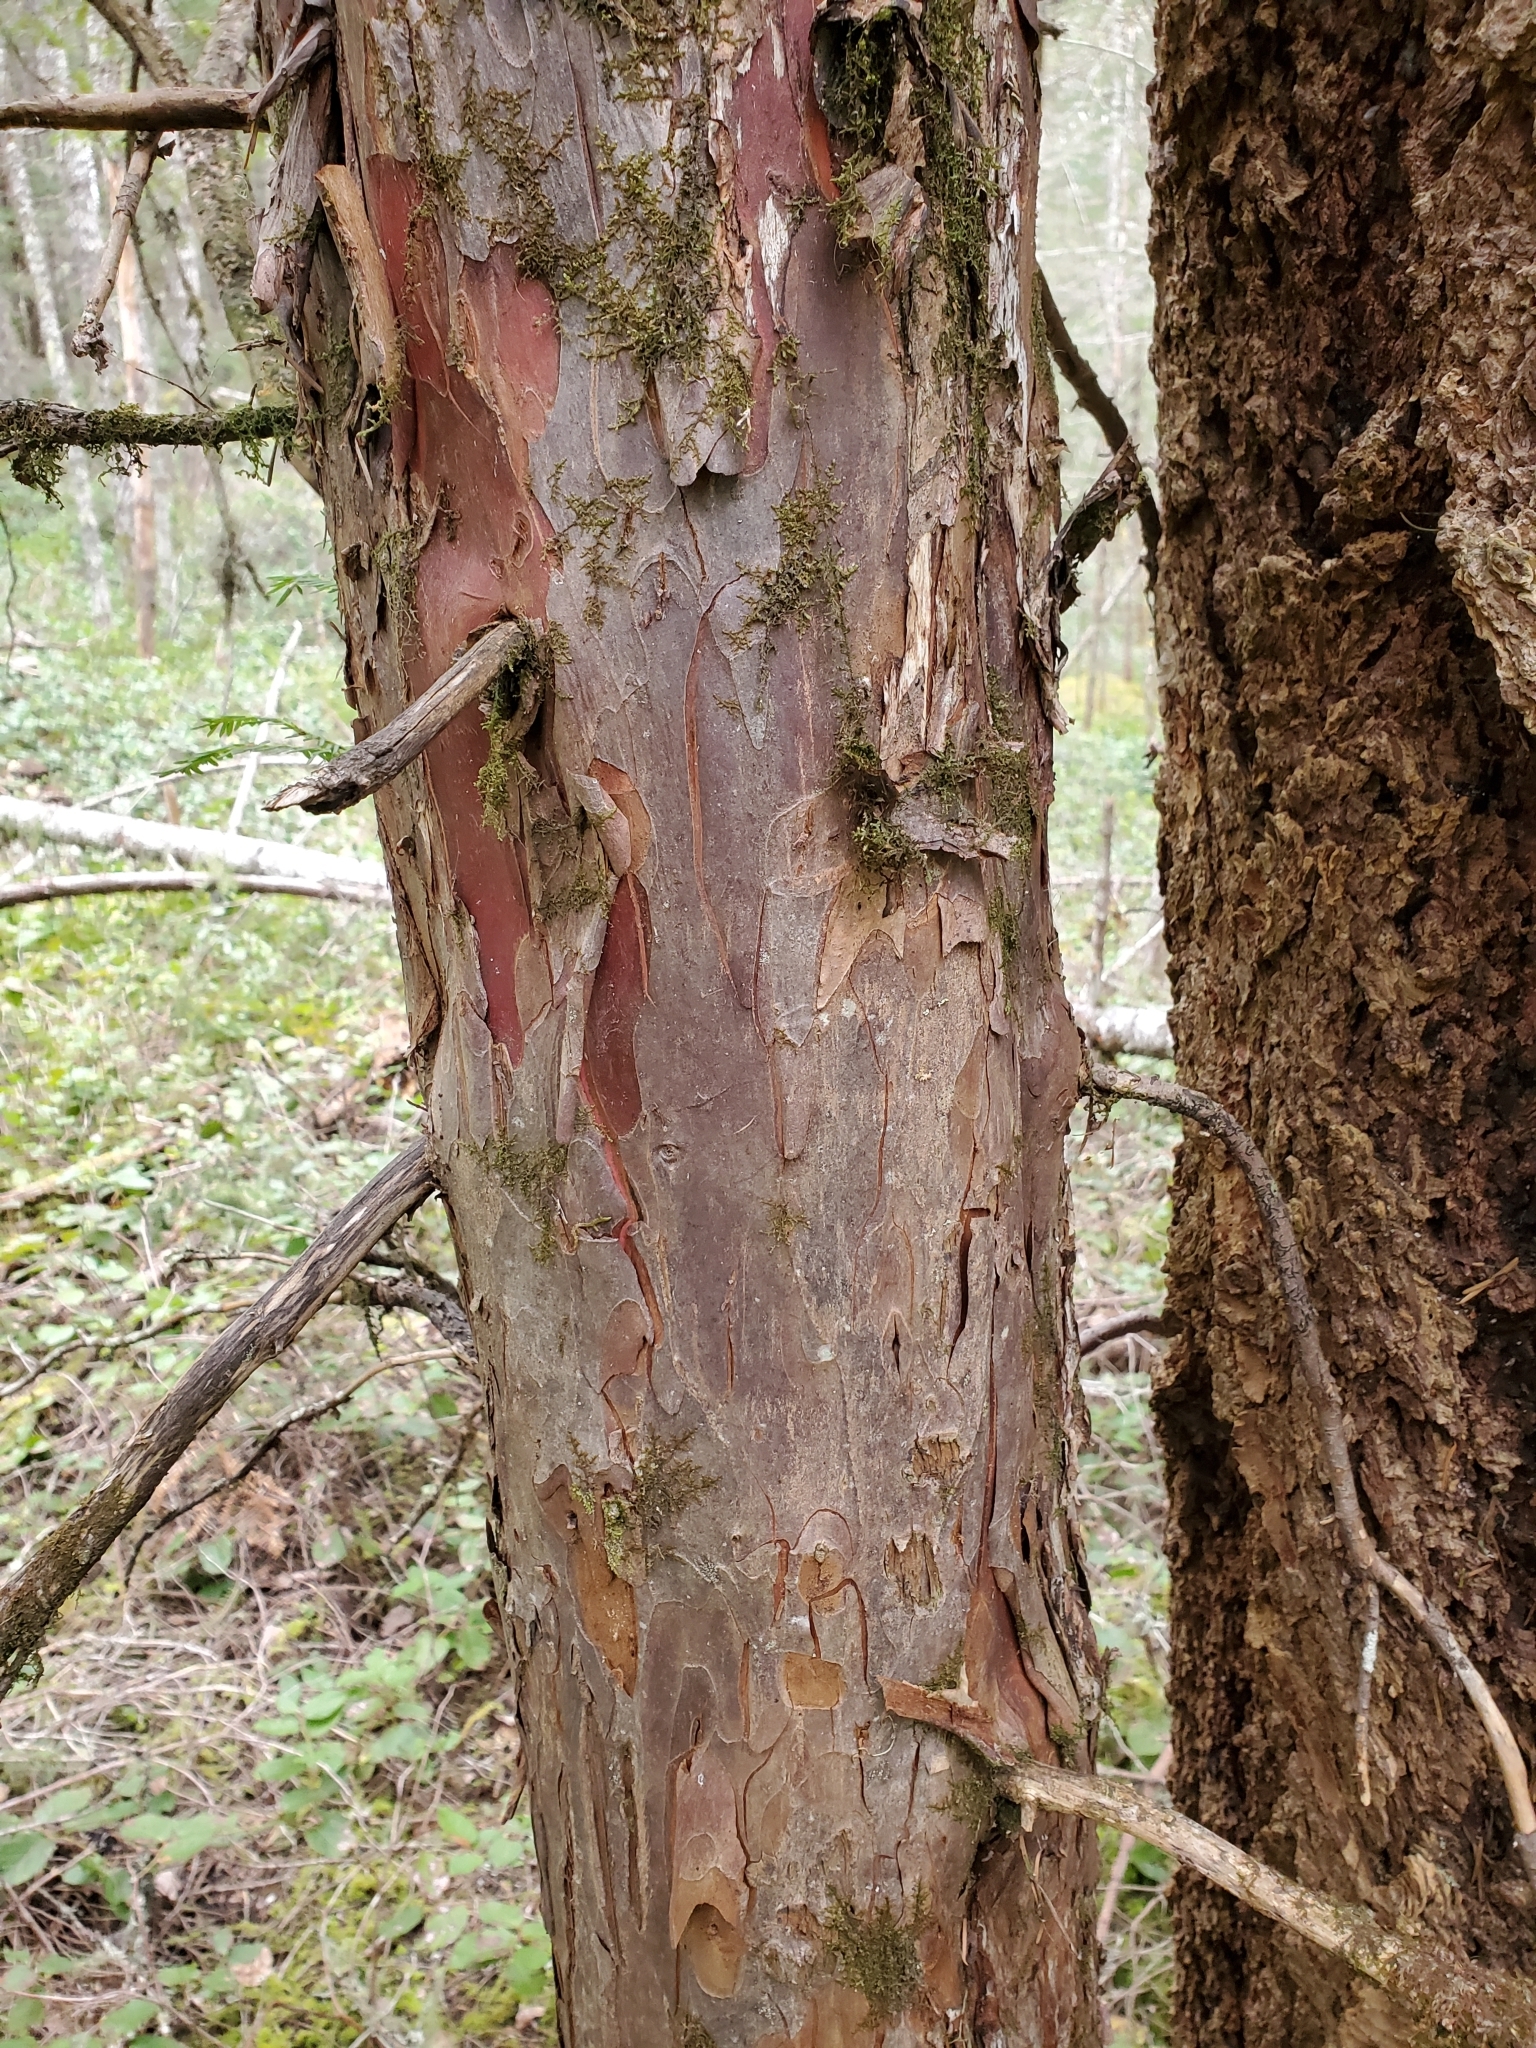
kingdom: Plantae
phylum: Tracheophyta
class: Pinopsida
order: Pinales
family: Taxaceae
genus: Taxus
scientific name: Taxus brevifolia
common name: Pacific yew
